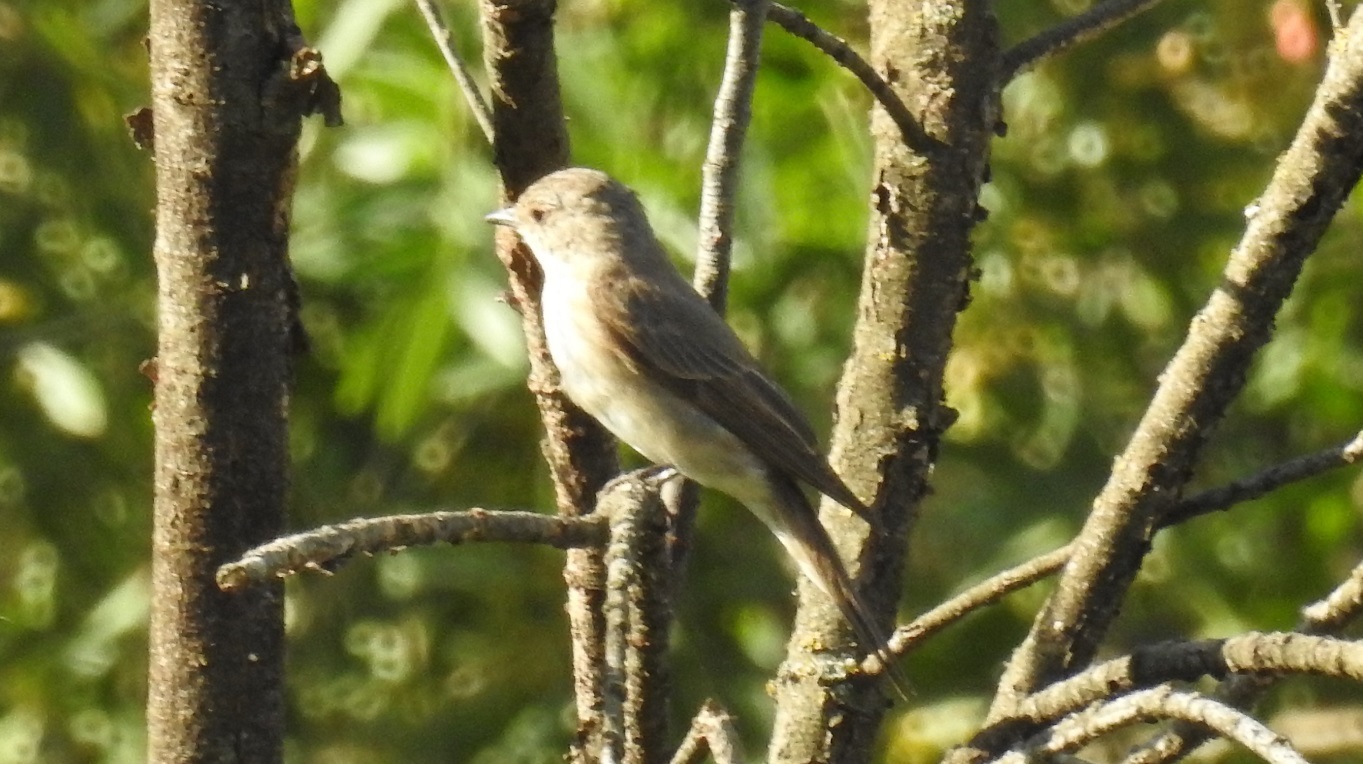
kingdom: Animalia
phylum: Chordata
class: Aves
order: Passeriformes
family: Muscicapidae
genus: Muscicapa
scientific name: Muscicapa striata
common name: Spotted flycatcher
